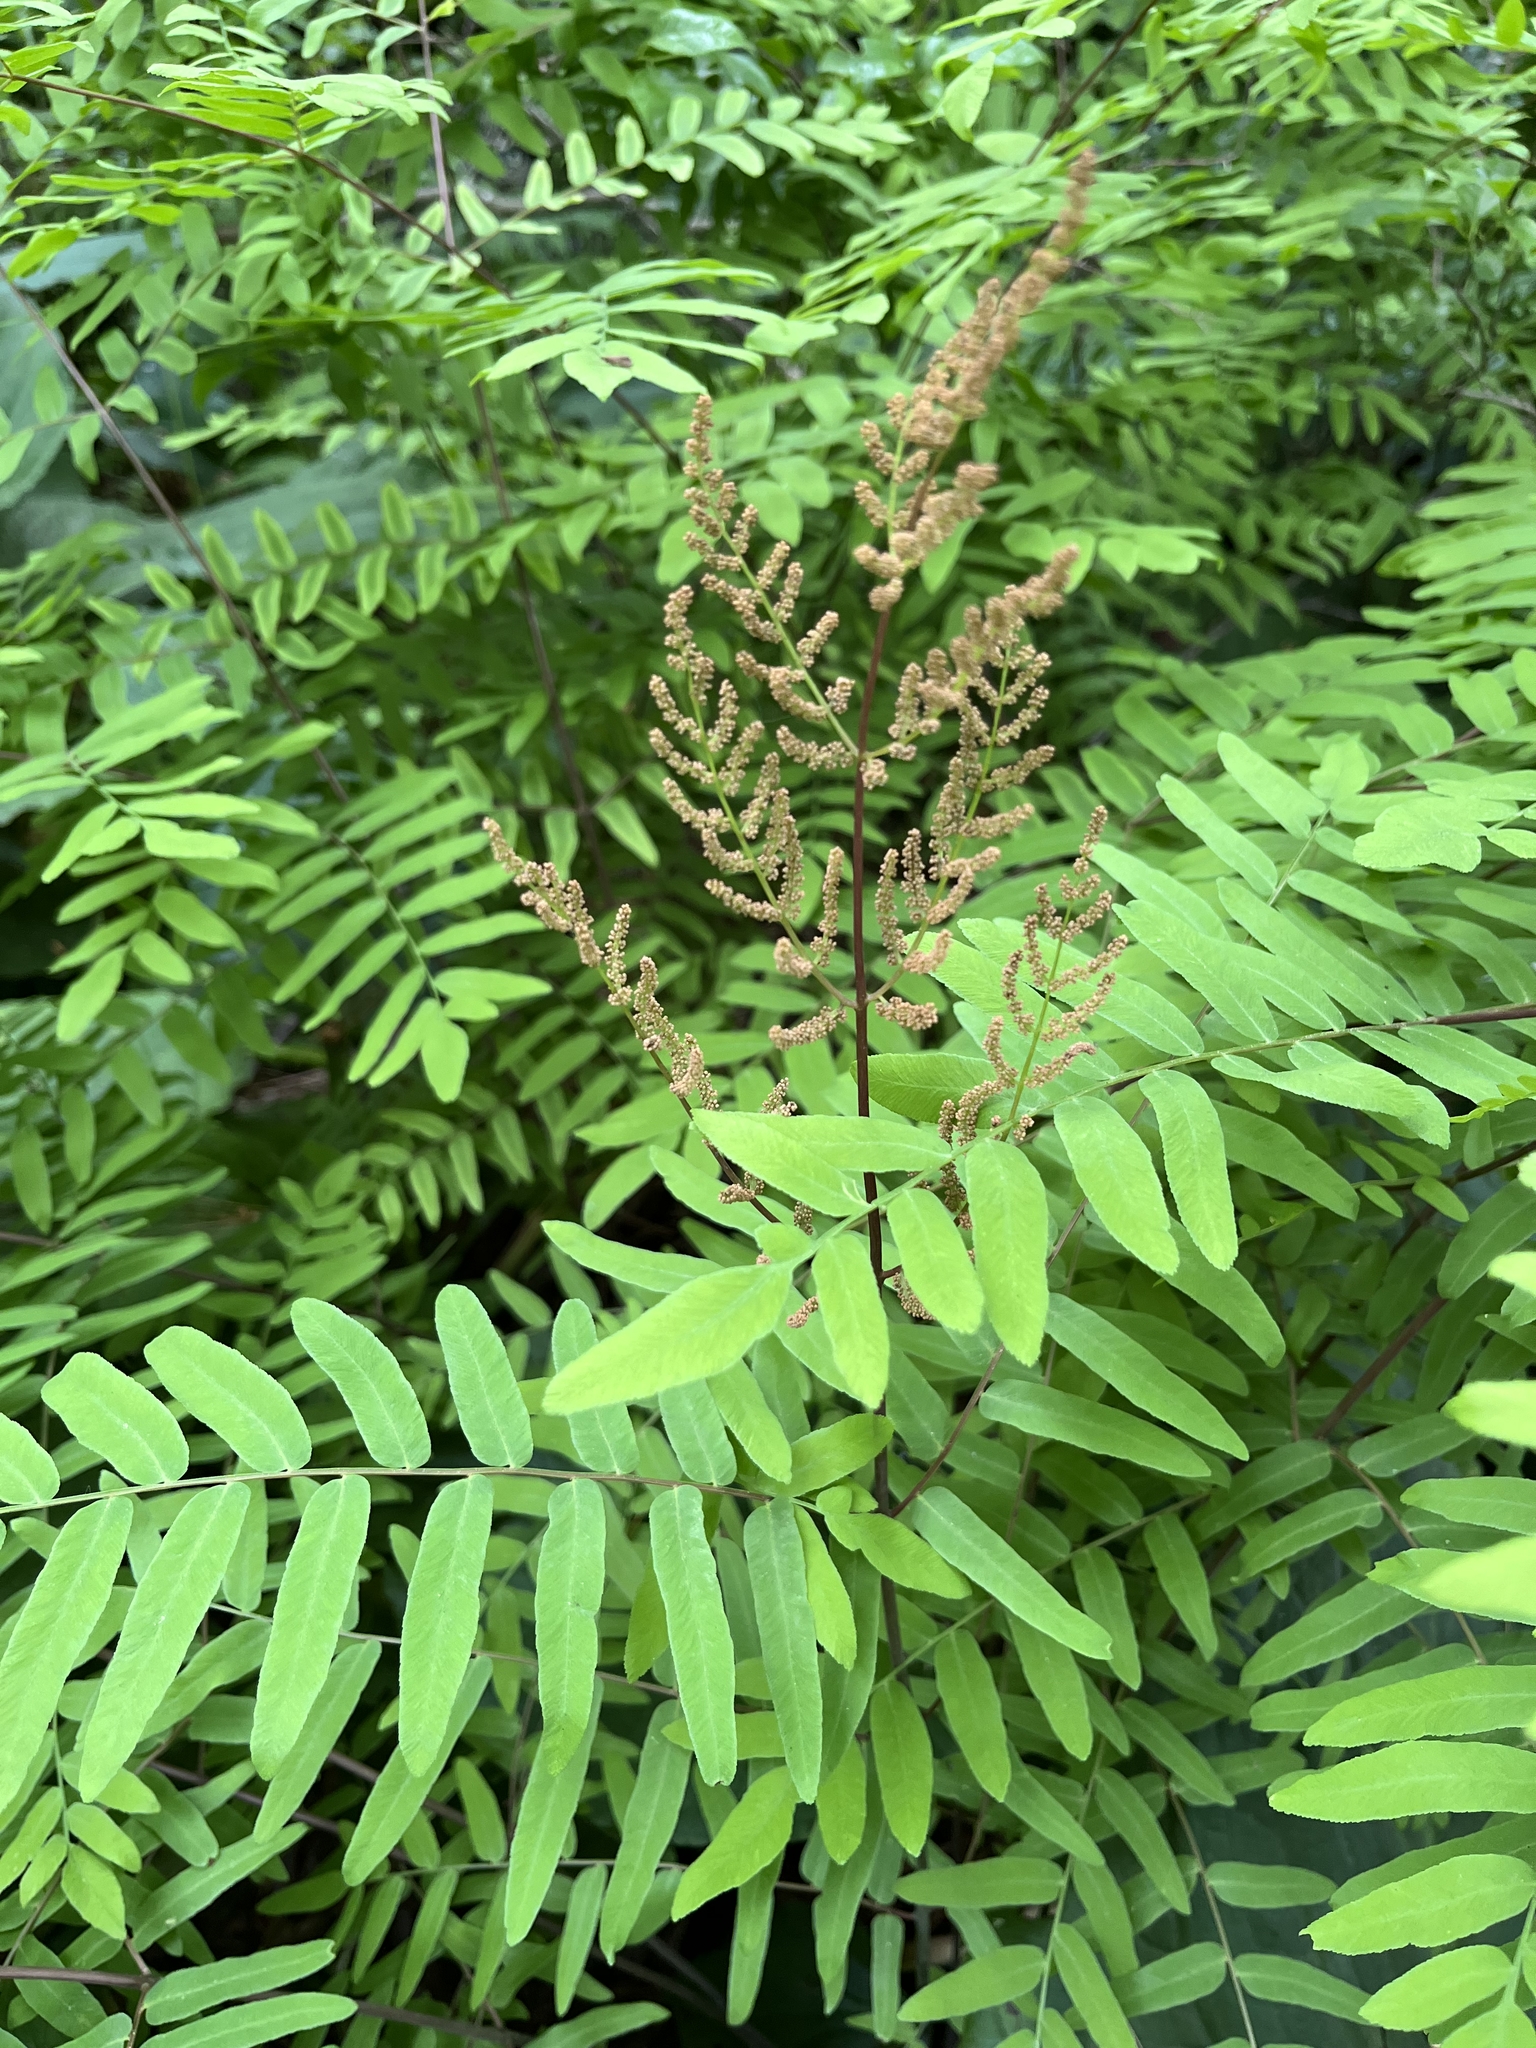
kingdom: Plantae
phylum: Tracheophyta
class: Polypodiopsida
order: Osmundales
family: Osmundaceae
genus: Osmunda
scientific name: Osmunda spectabilis
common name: American royal fern
